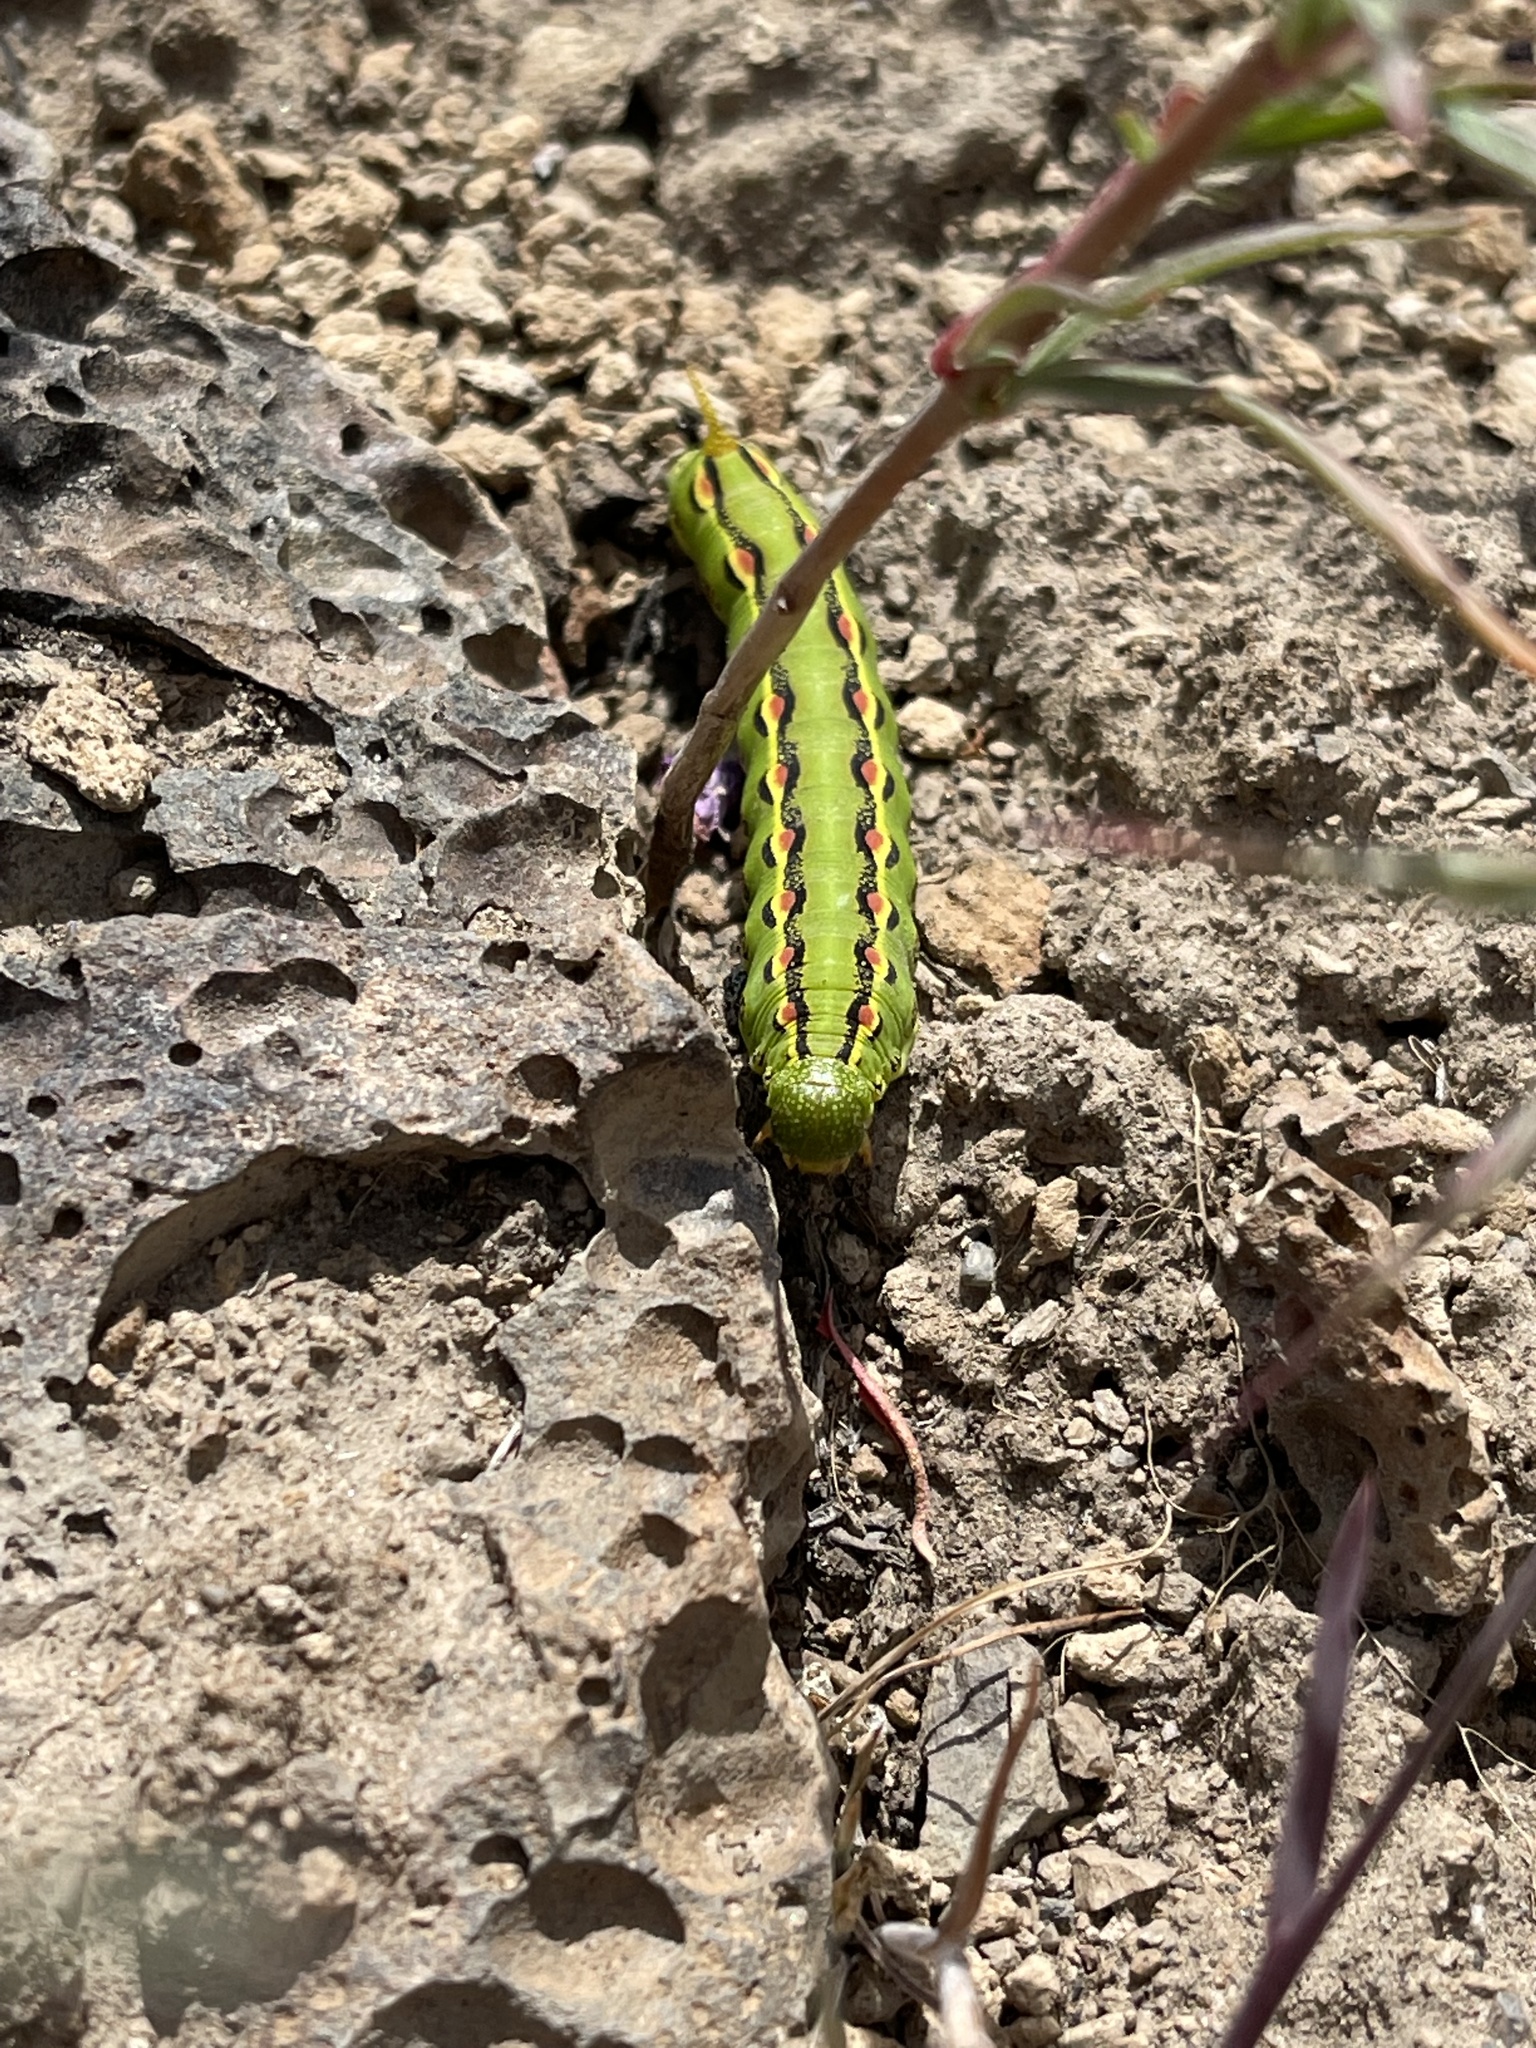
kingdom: Animalia
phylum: Arthropoda
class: Insecta
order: Lepidoptera
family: Sphingidae
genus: Hyles
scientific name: Hyles lineata
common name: White-lined sphinx
